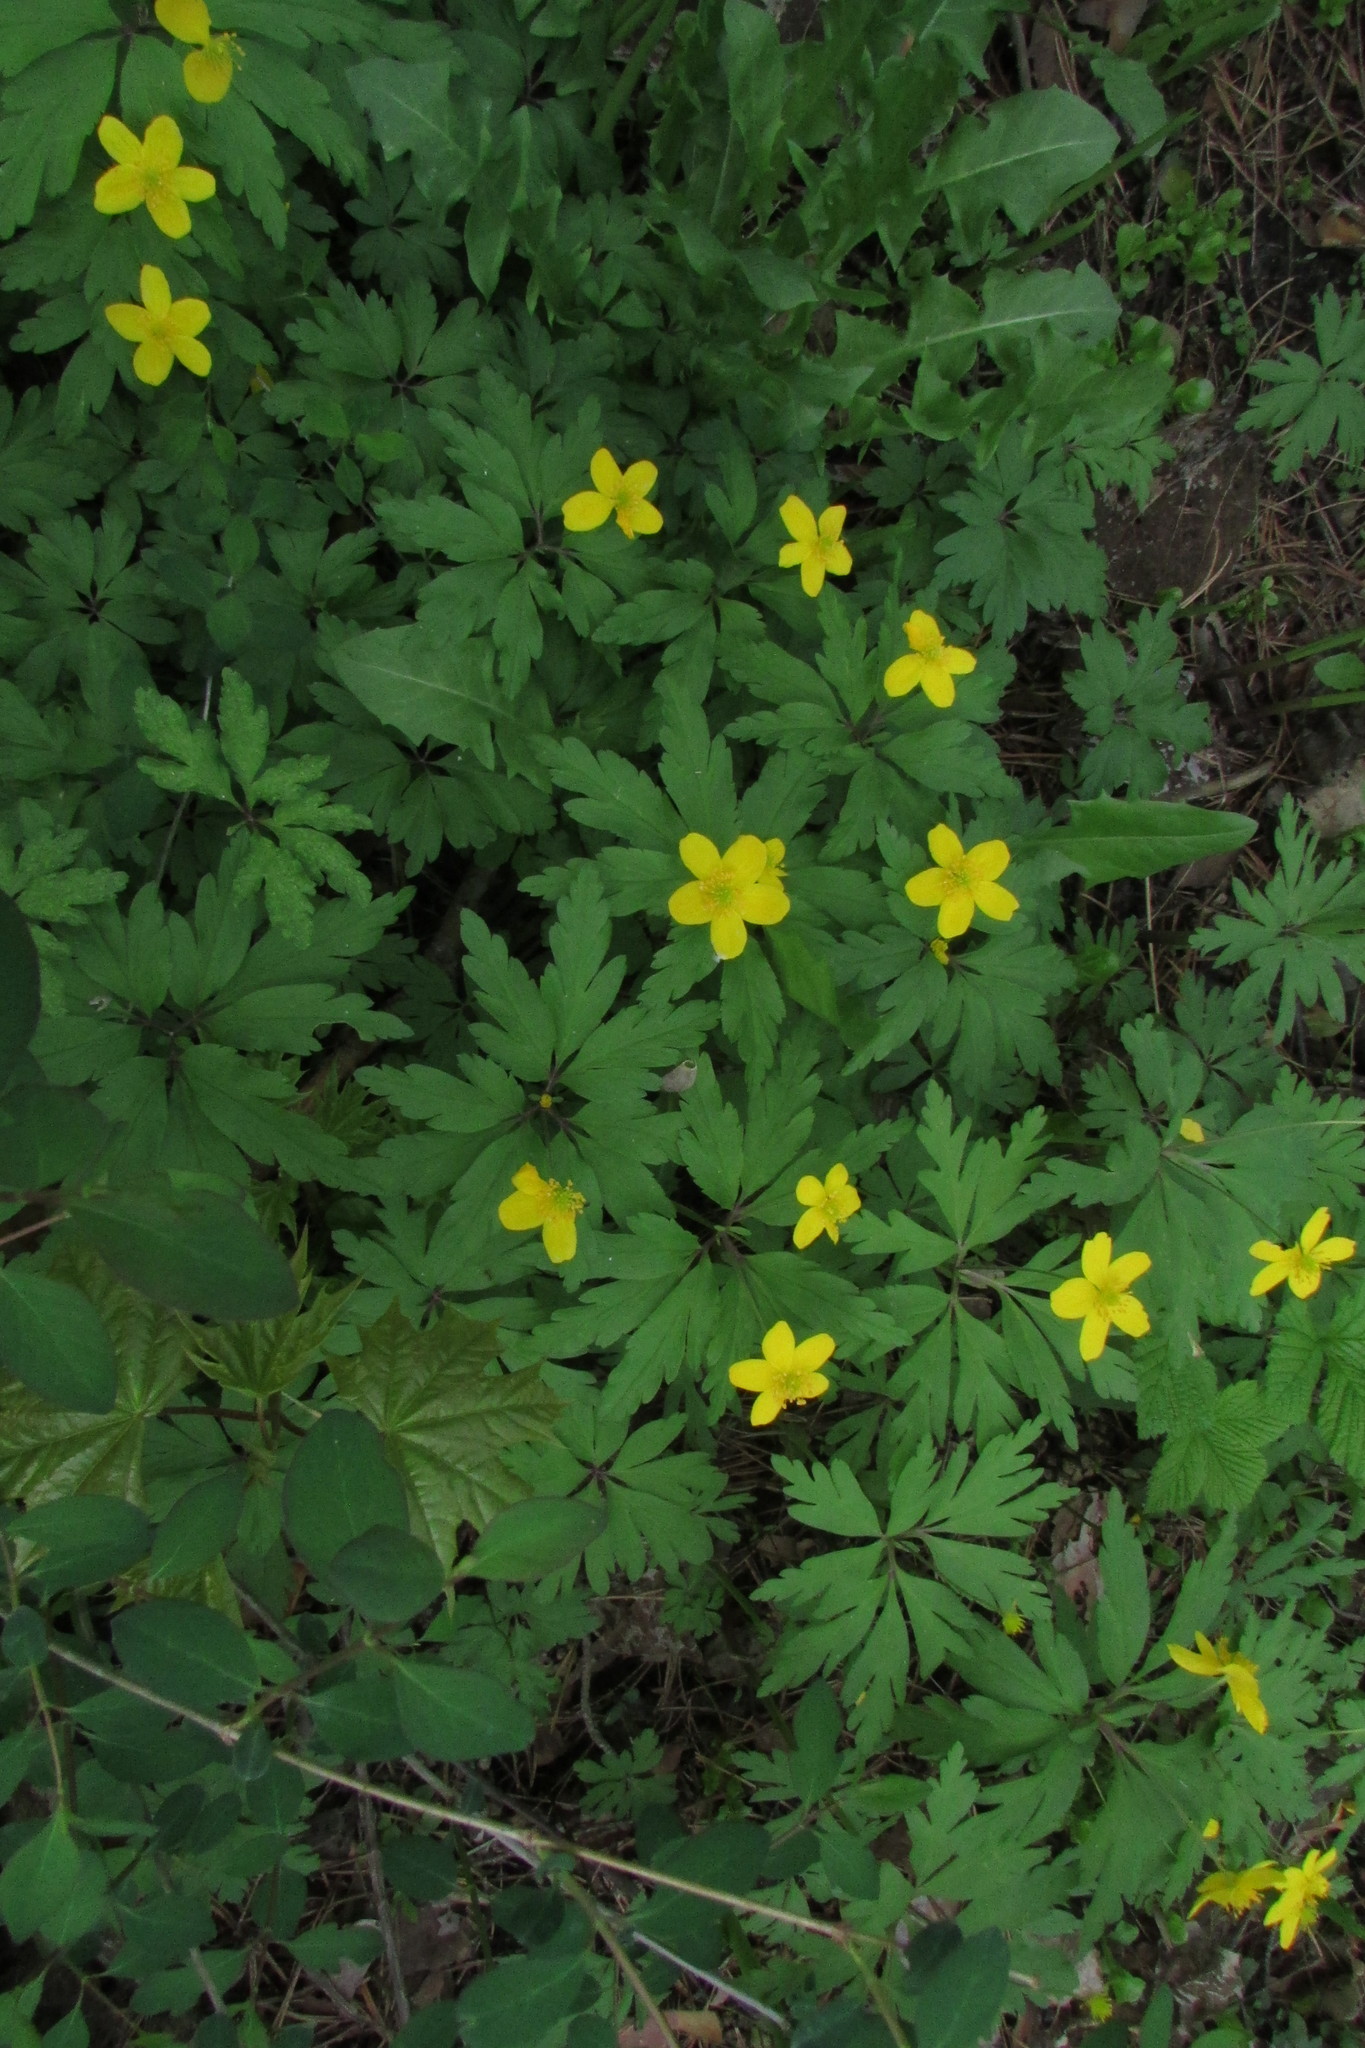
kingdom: Plantae
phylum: Tracheophyta
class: Magnoliopsida
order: Ranunculales
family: Ranunculaceae
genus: Anemone
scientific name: Anemone ranunculoides
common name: Yellow anemone
